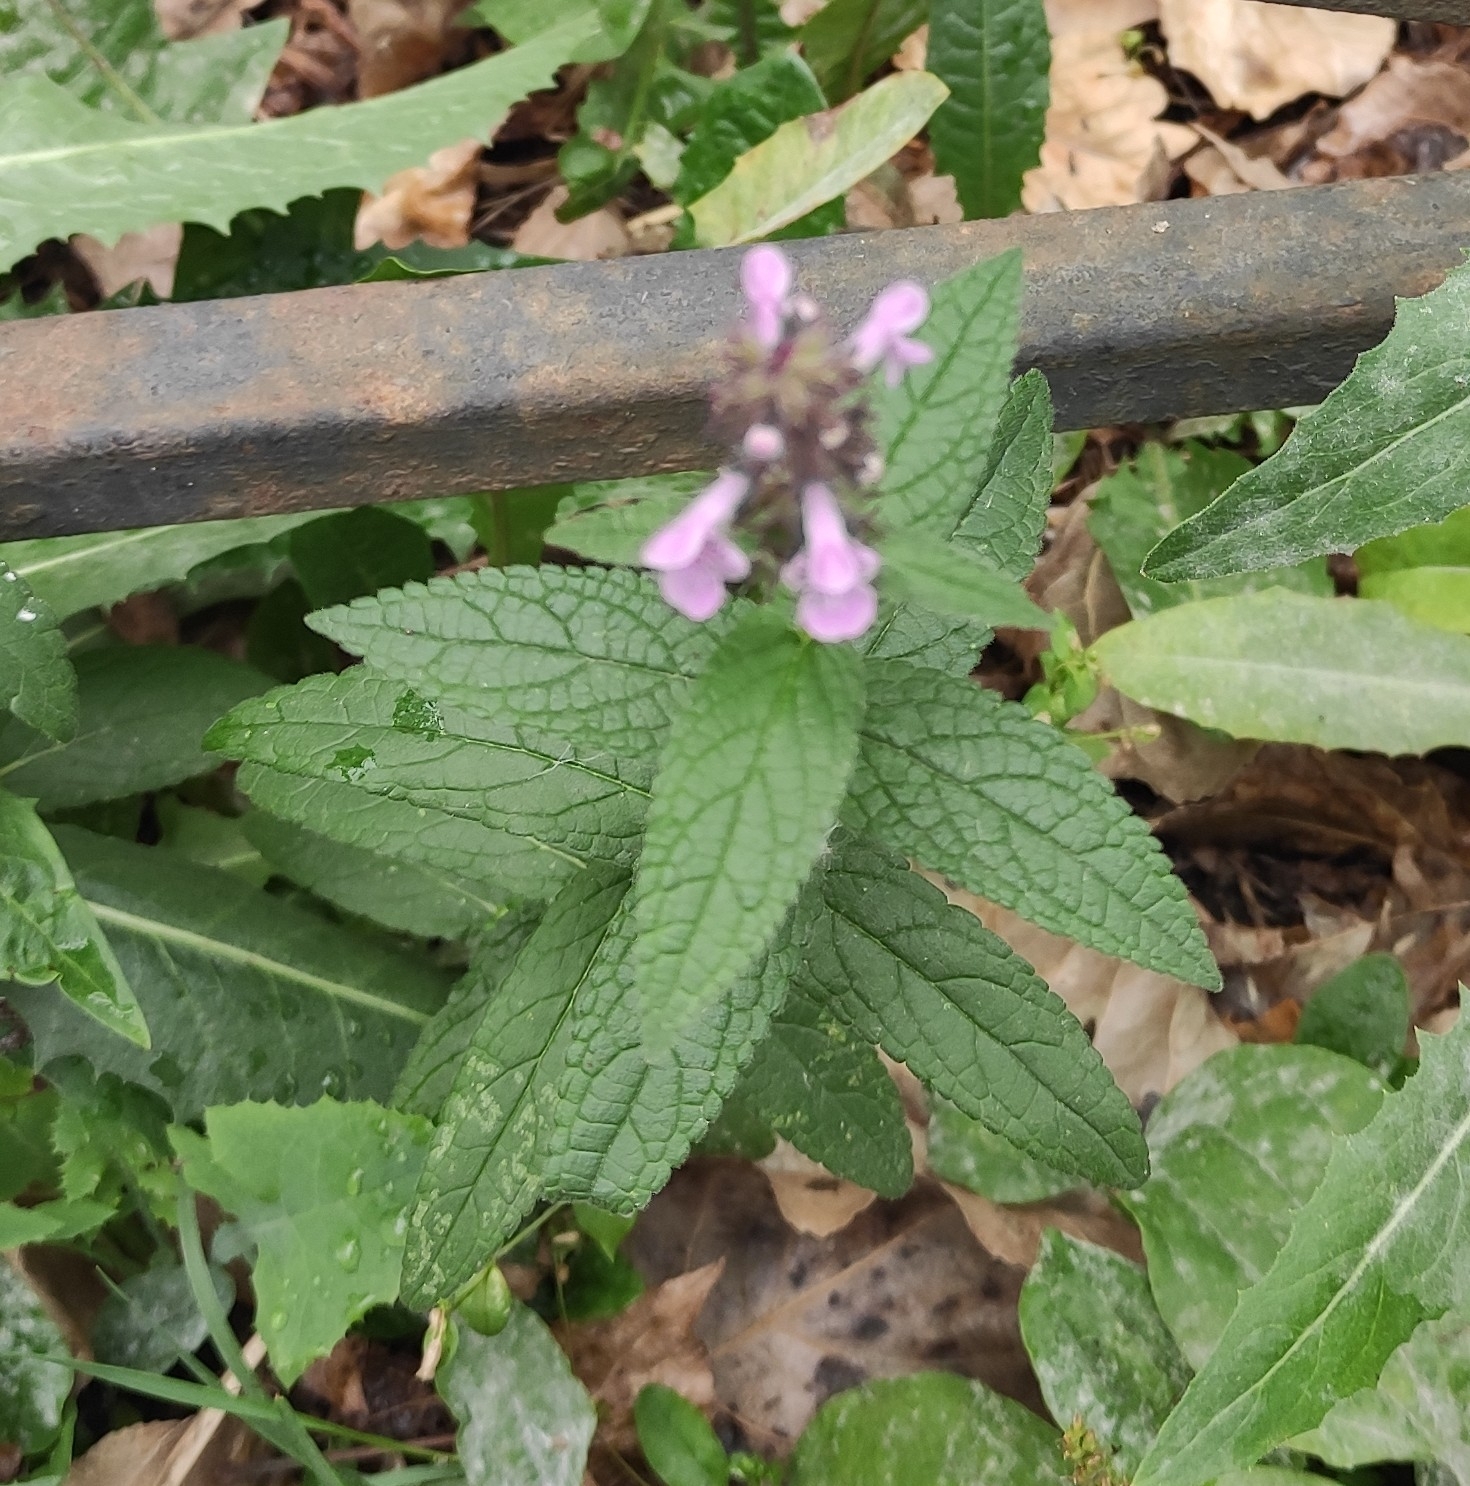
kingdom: Plantae
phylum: Tracheophyta
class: Magnoliopsida
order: Lamiales
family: Lamiaceae
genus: Stachys
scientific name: Stachys palustris
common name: Marsh woundwort
